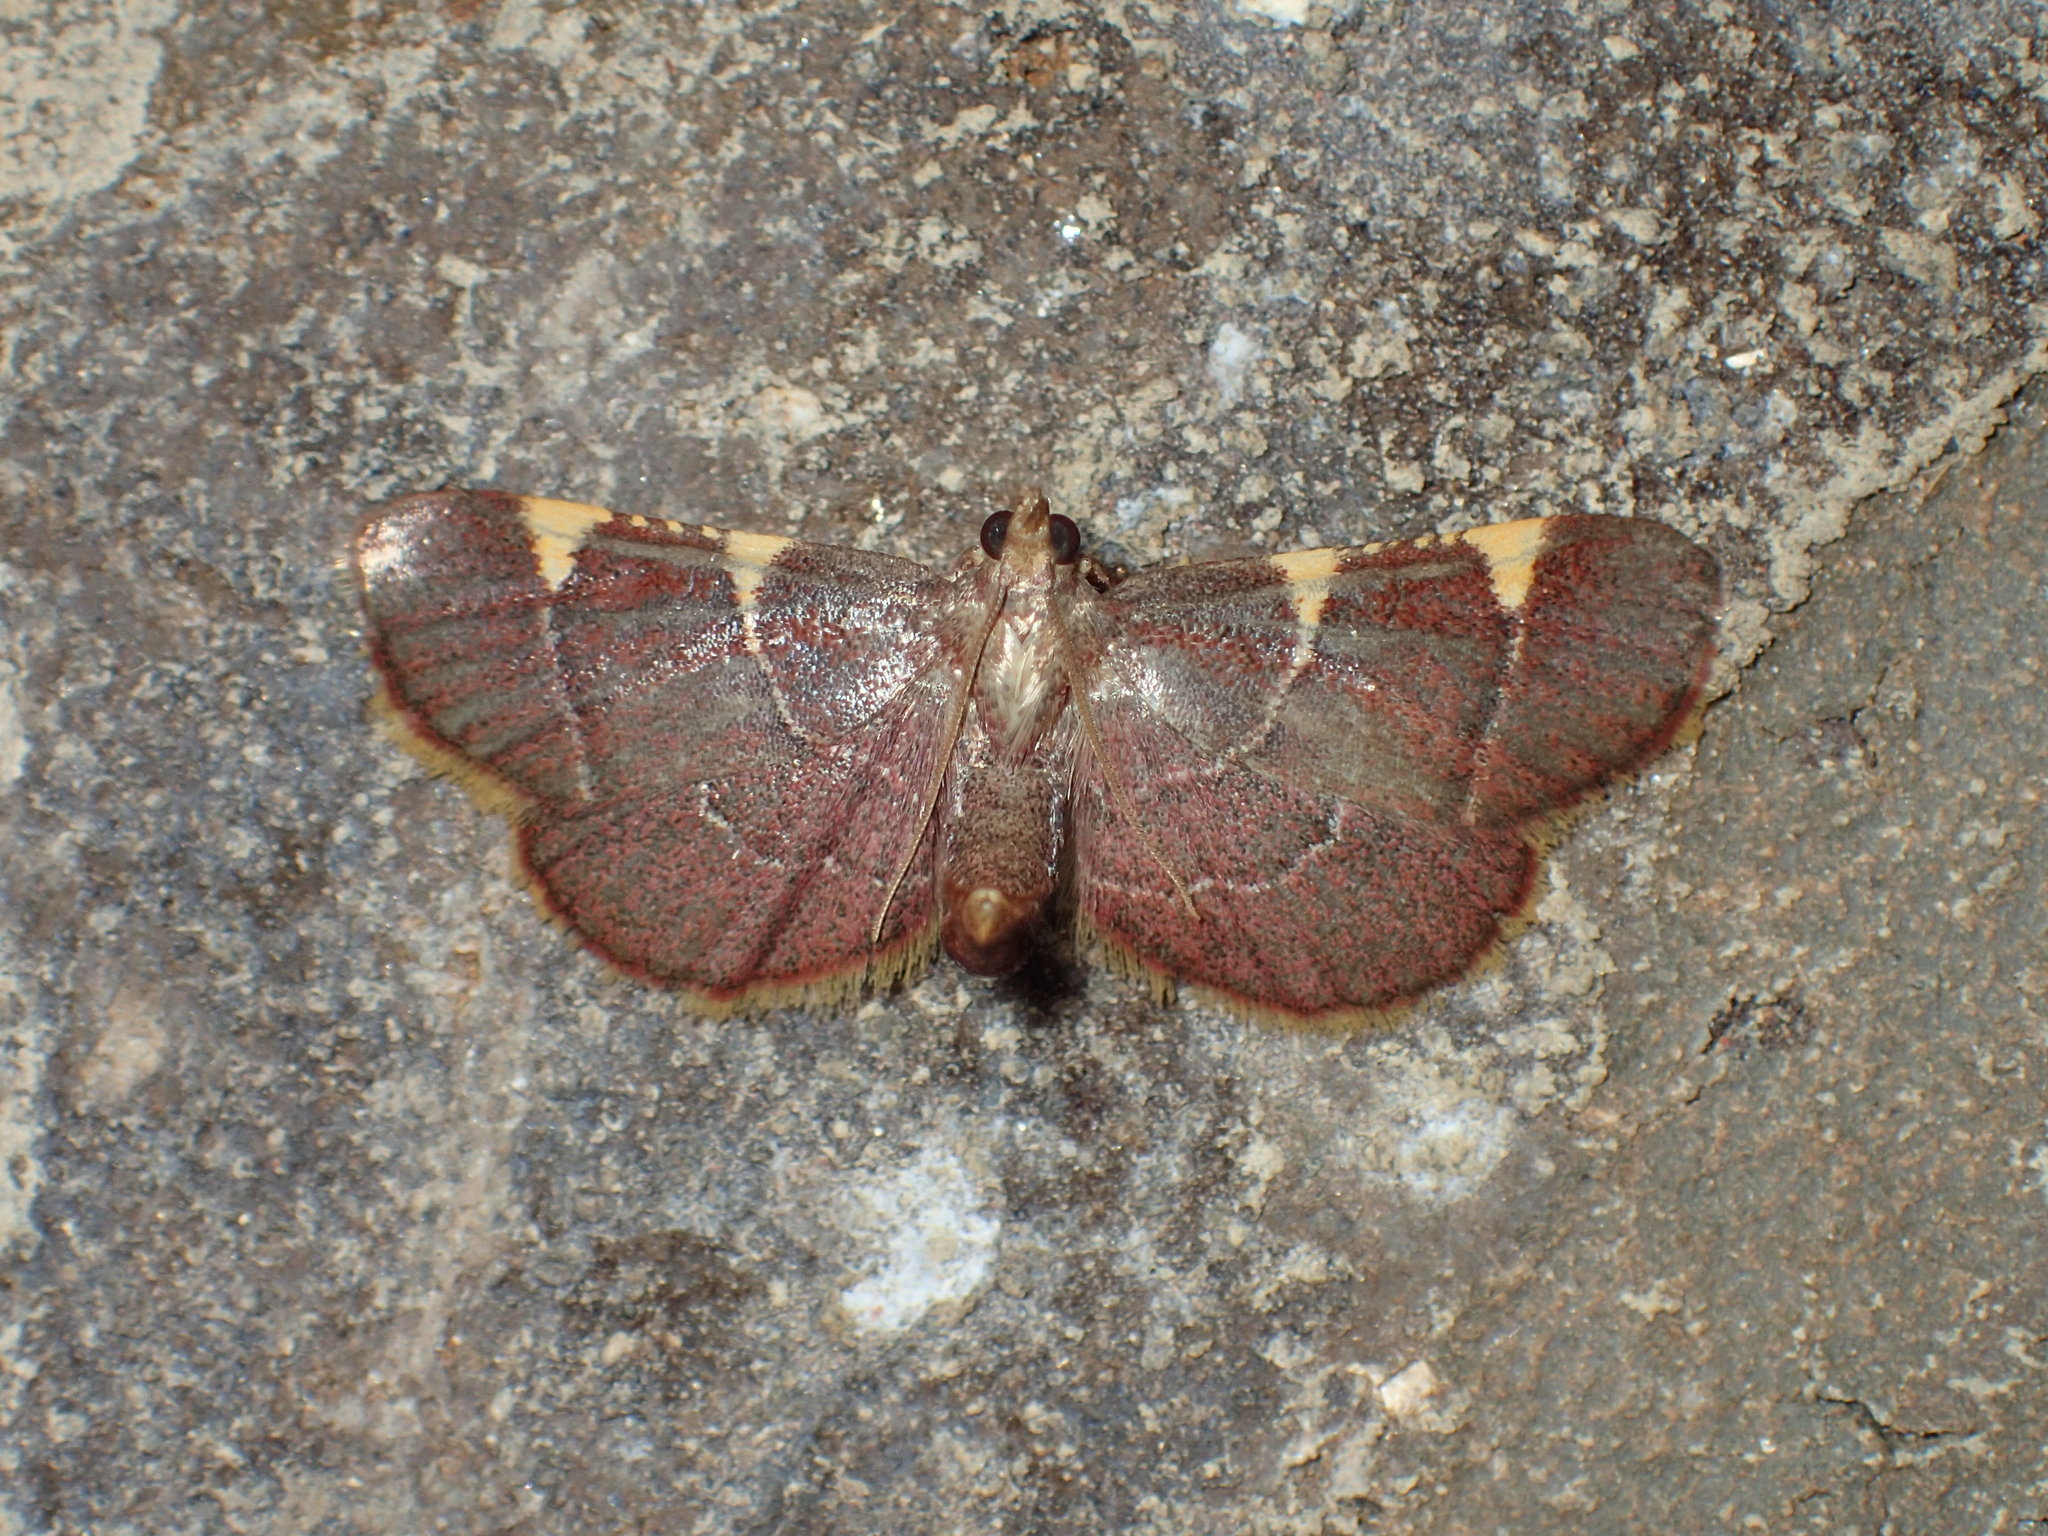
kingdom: Animalia
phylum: Arthropoda
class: Insecta
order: Lepidoptera
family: Pyralidae
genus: Hypsopygia
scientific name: Hypsopygia olinalis
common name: Yellow-fringed dolichomia moth
